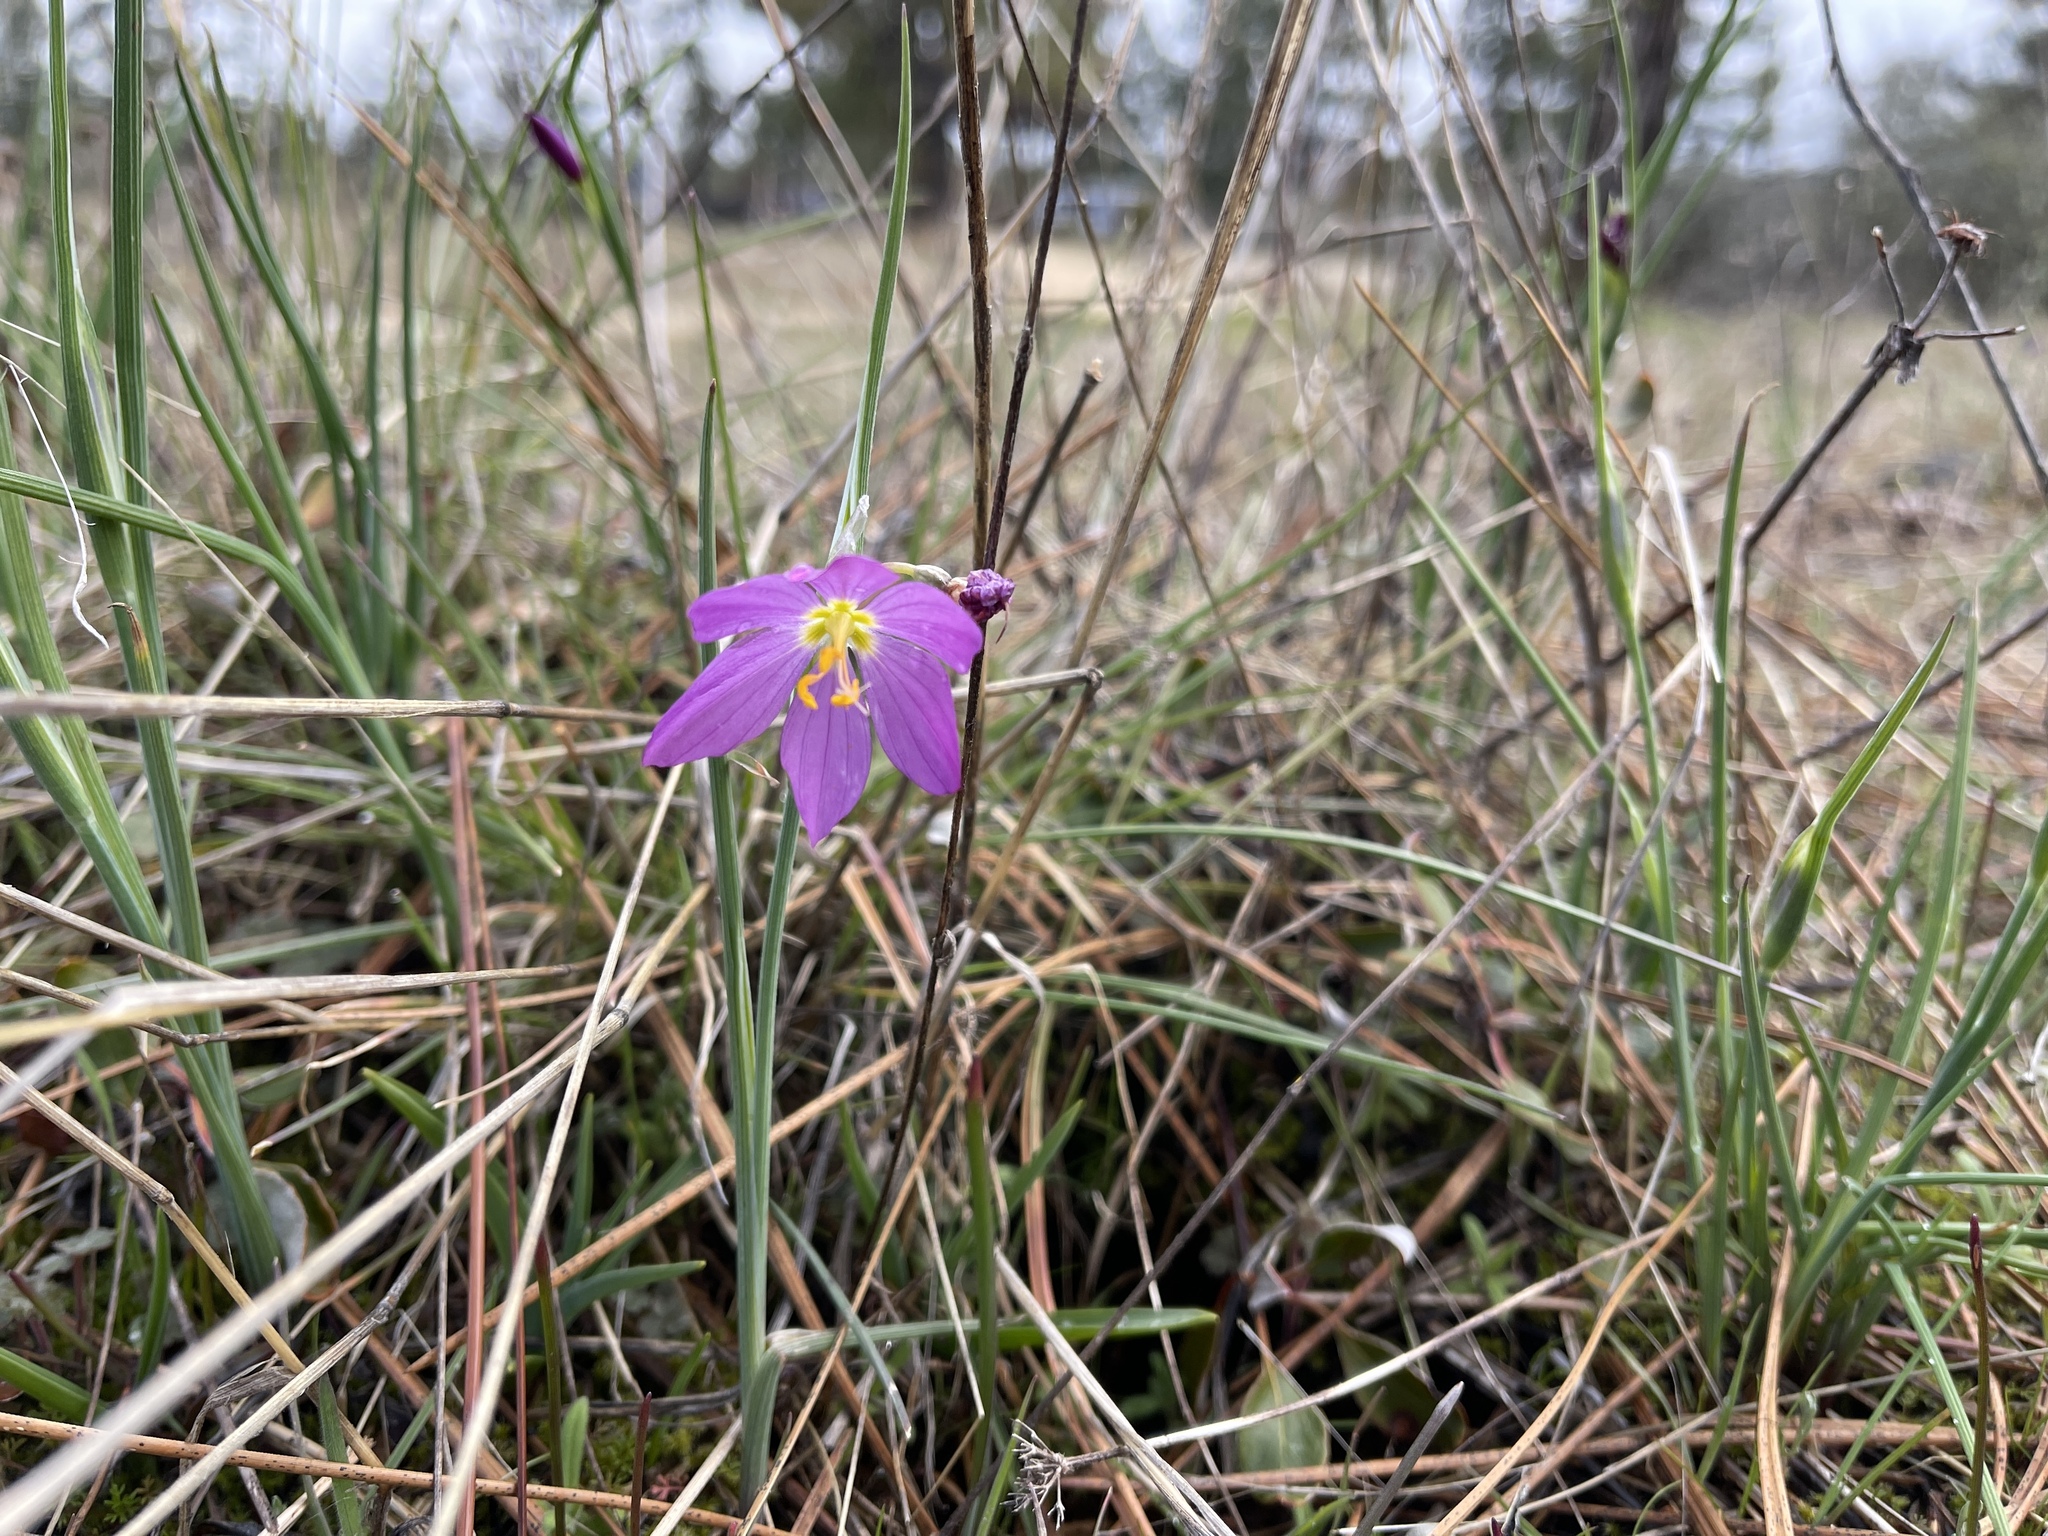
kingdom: Plantae
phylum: Tracheophyta
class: Liliopsida
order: Asparagales
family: Iridaceae
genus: Olsynium
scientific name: Olsynium douglasii
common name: Douglas' grasswidow
